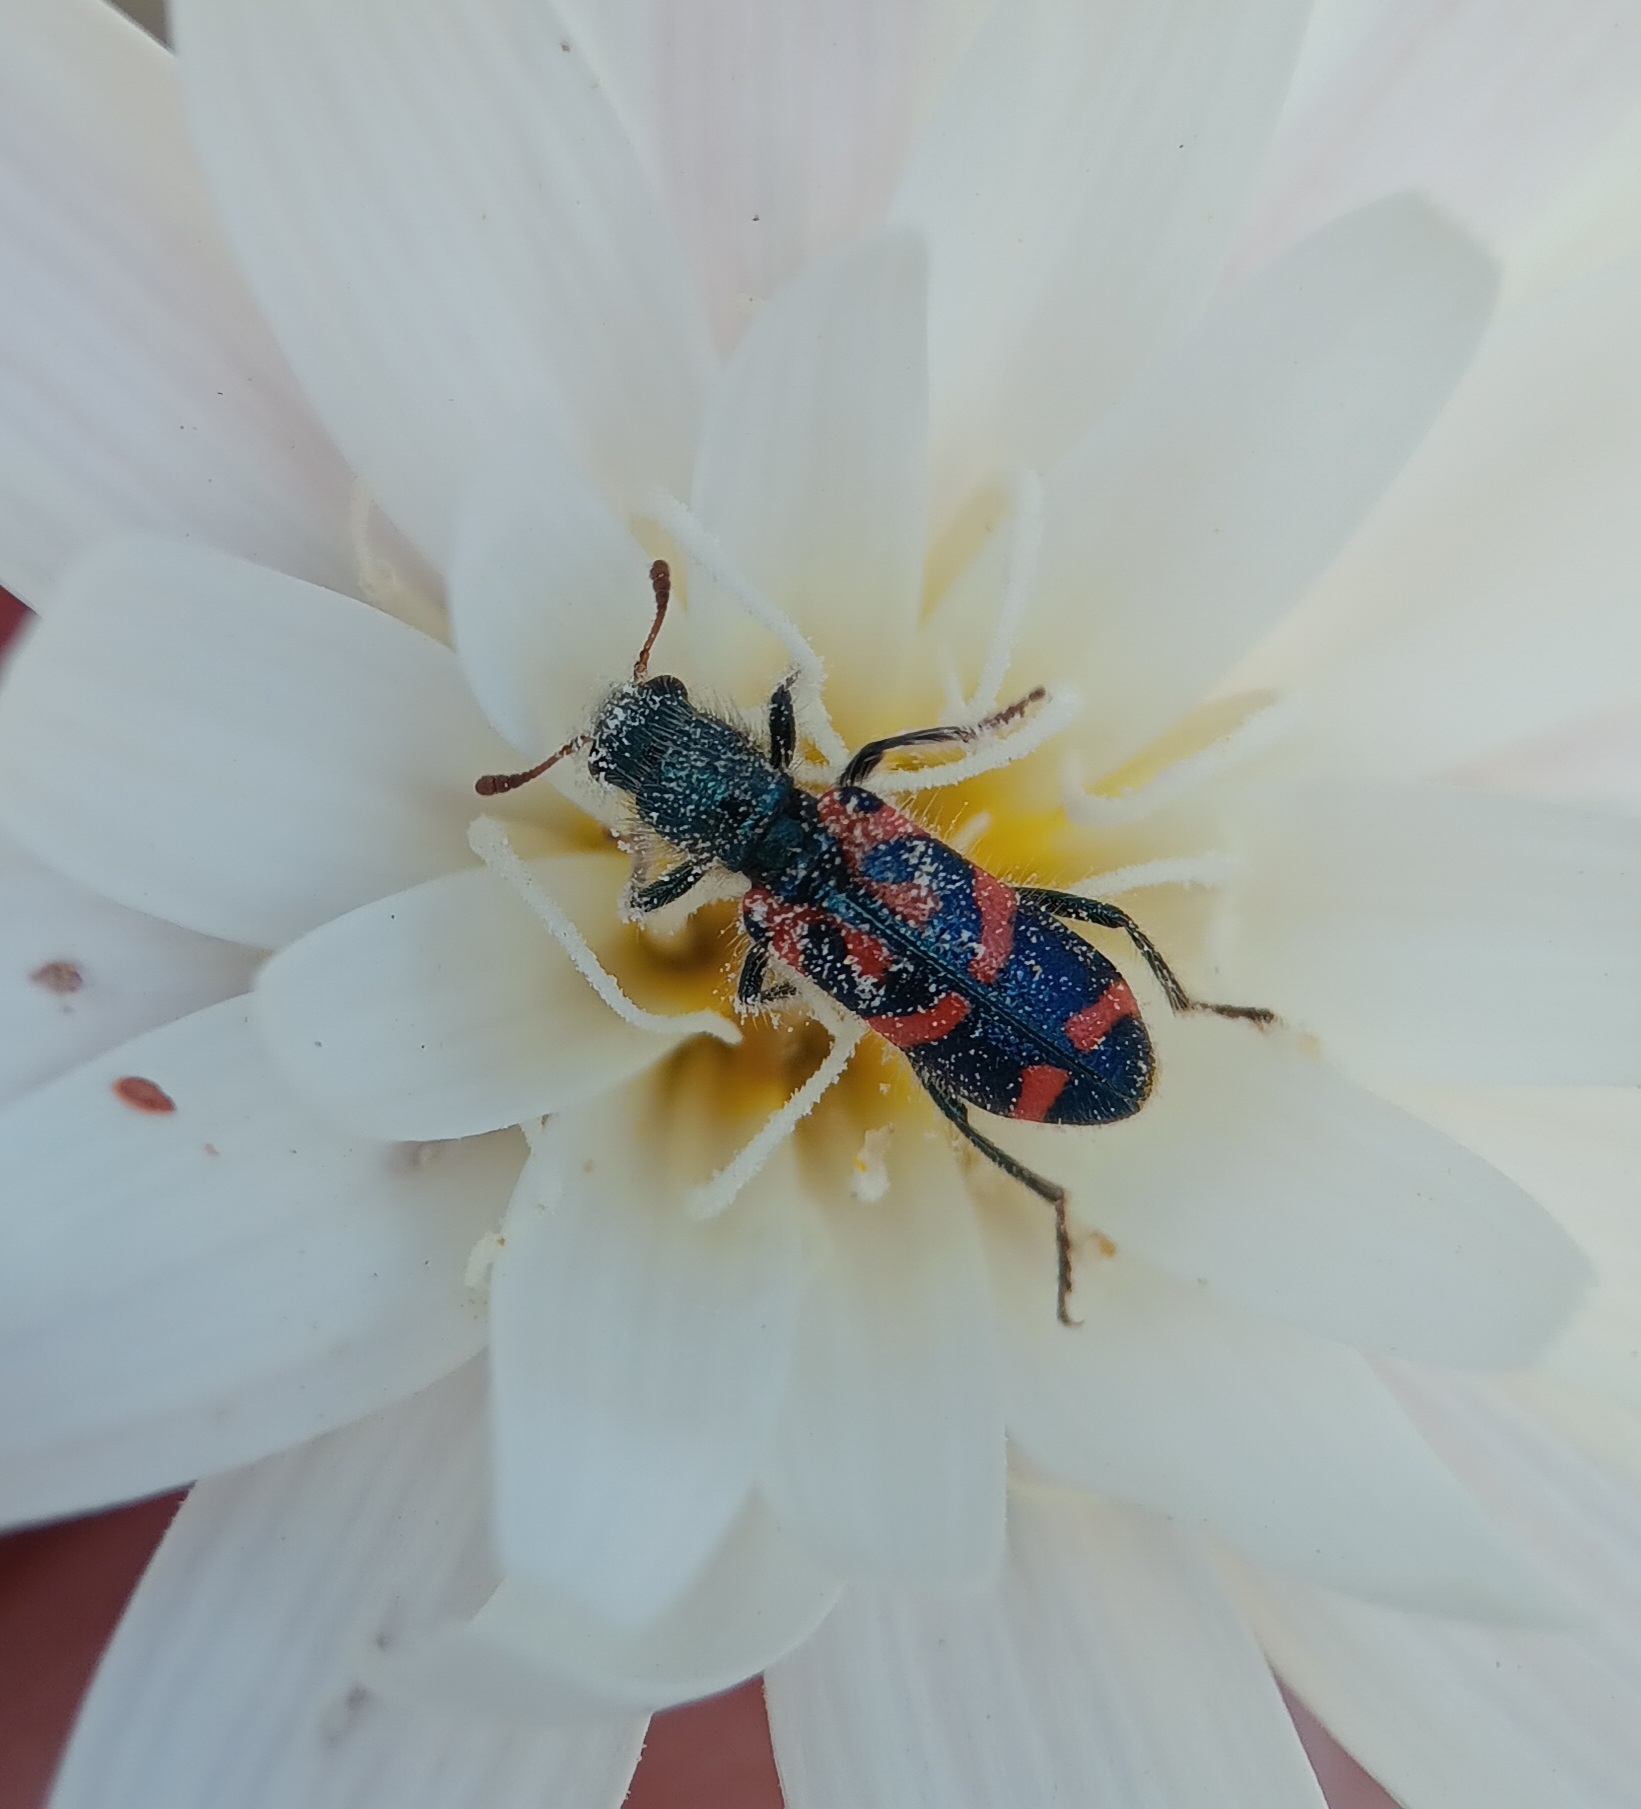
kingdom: Animalia
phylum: Arthropoda
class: Insecta
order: Coleoptera
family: Cleridae
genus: Trichodes
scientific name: Trichodes ornatus
